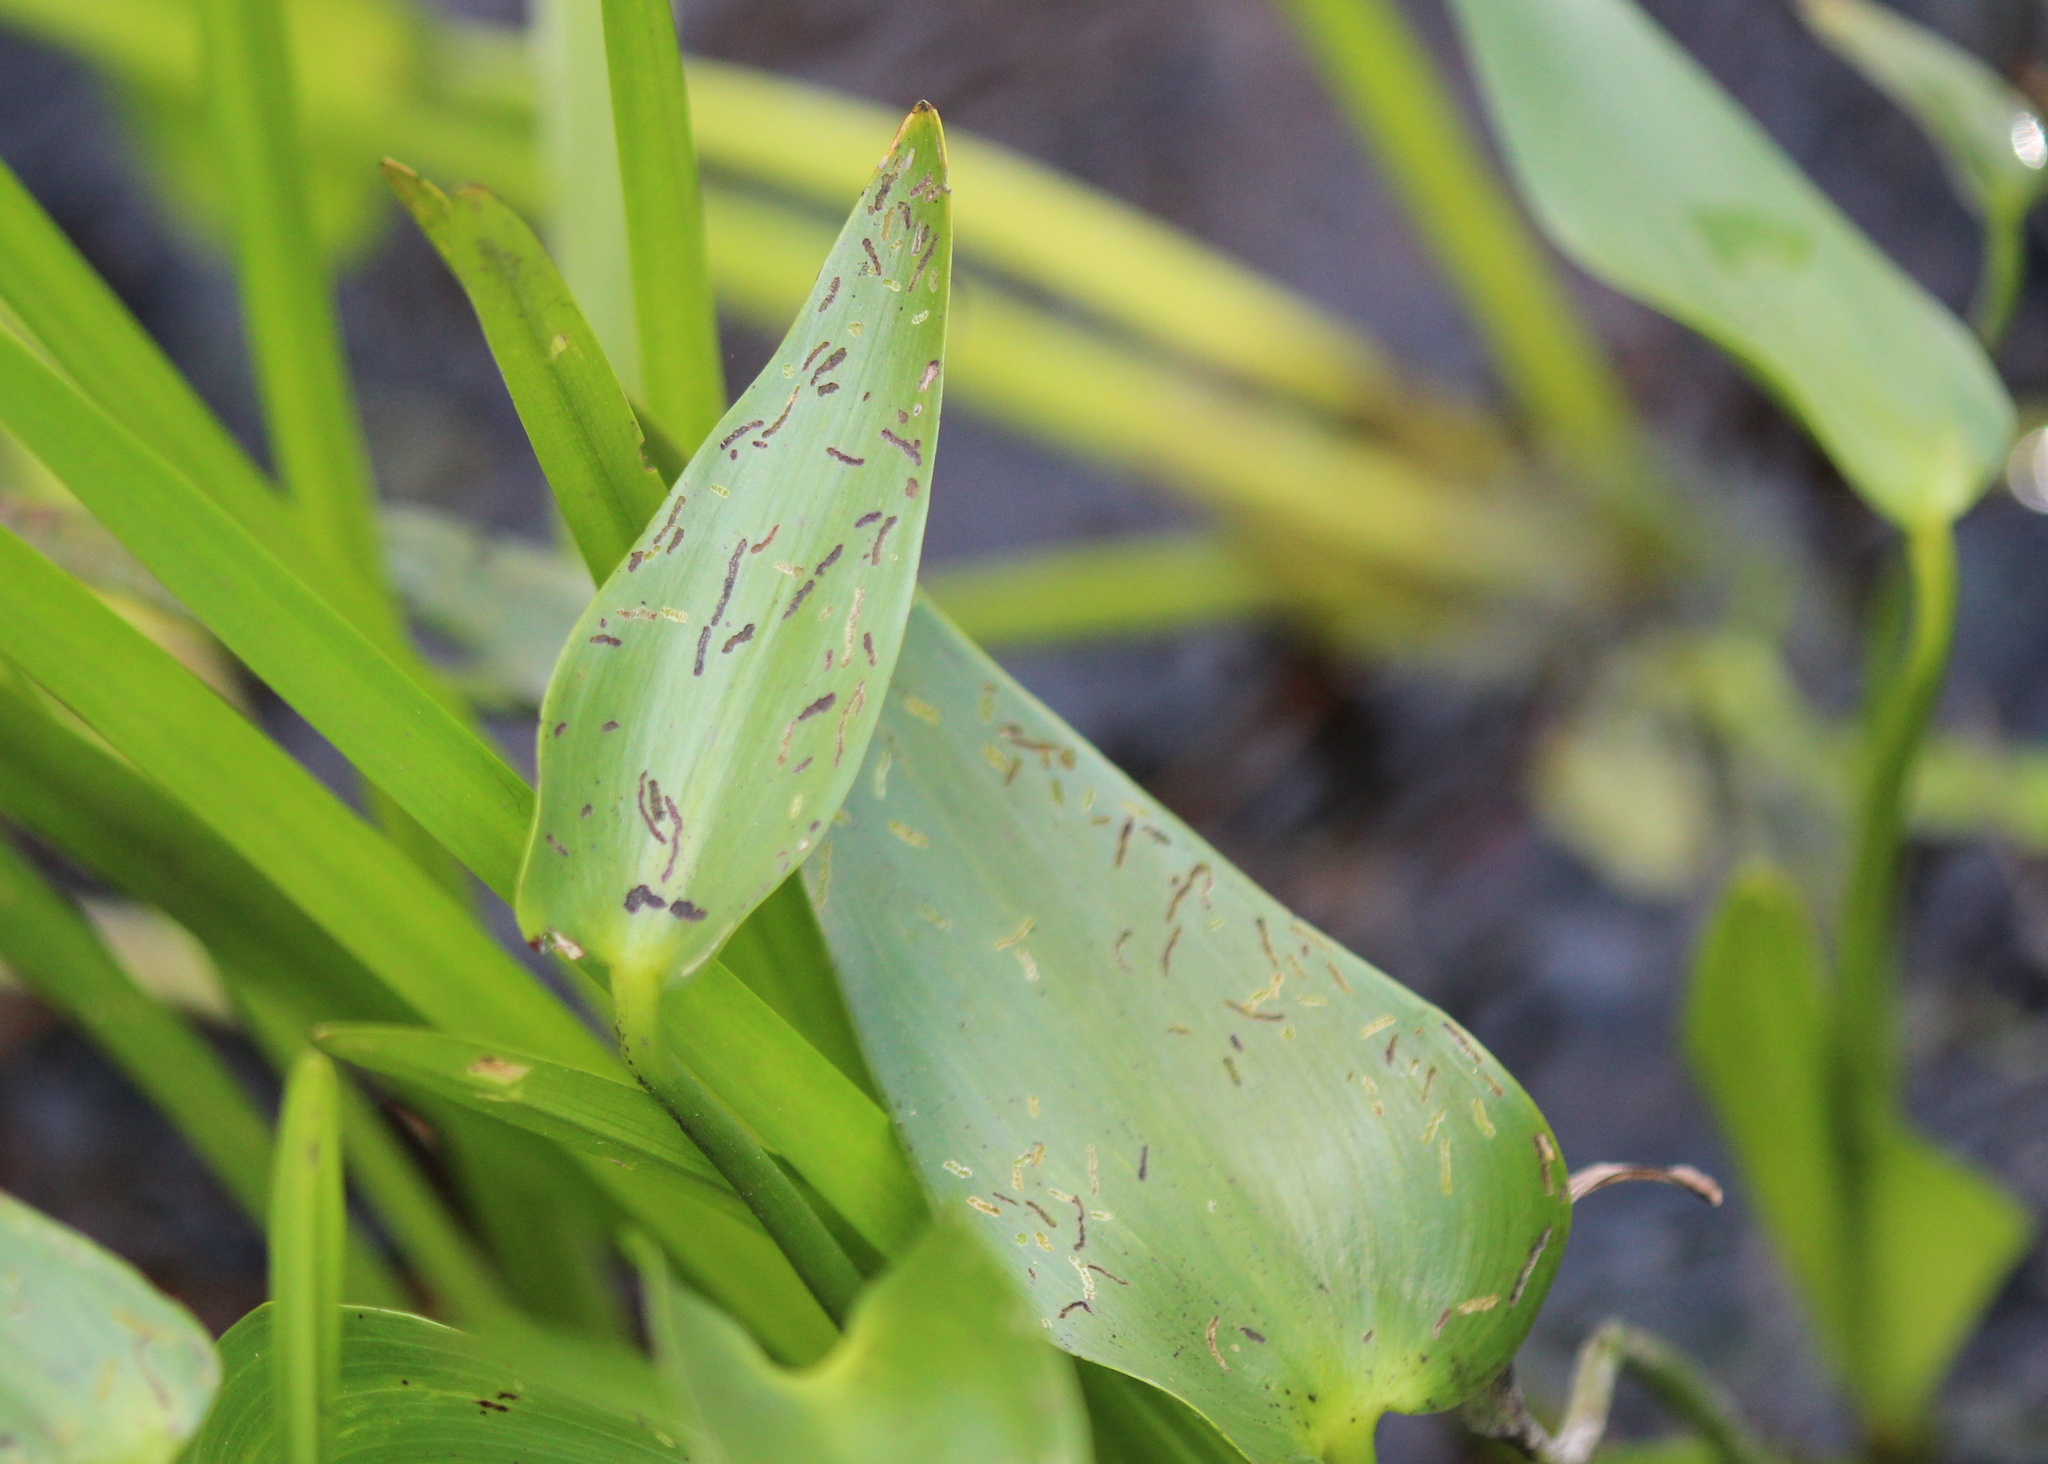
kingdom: Plantae
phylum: Tracheophyta
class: Liliopsida
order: Commelinales
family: Pontederiaceae
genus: Pontederia
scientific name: Pontederia cordata
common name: Pickerelweed
